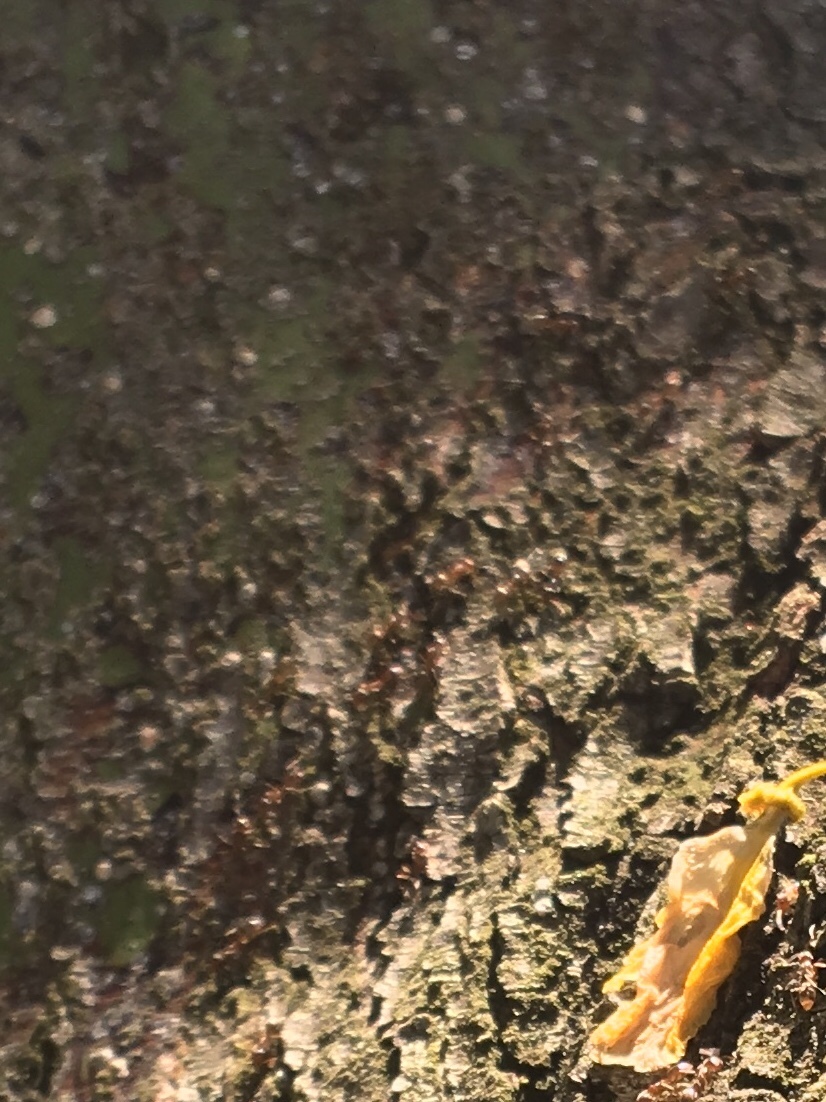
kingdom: Animalia
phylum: Arthropoda
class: Insecta
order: Hymenoptera
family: Formicidae
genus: Linepithema
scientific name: Linepithema humile
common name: Argentine ant
